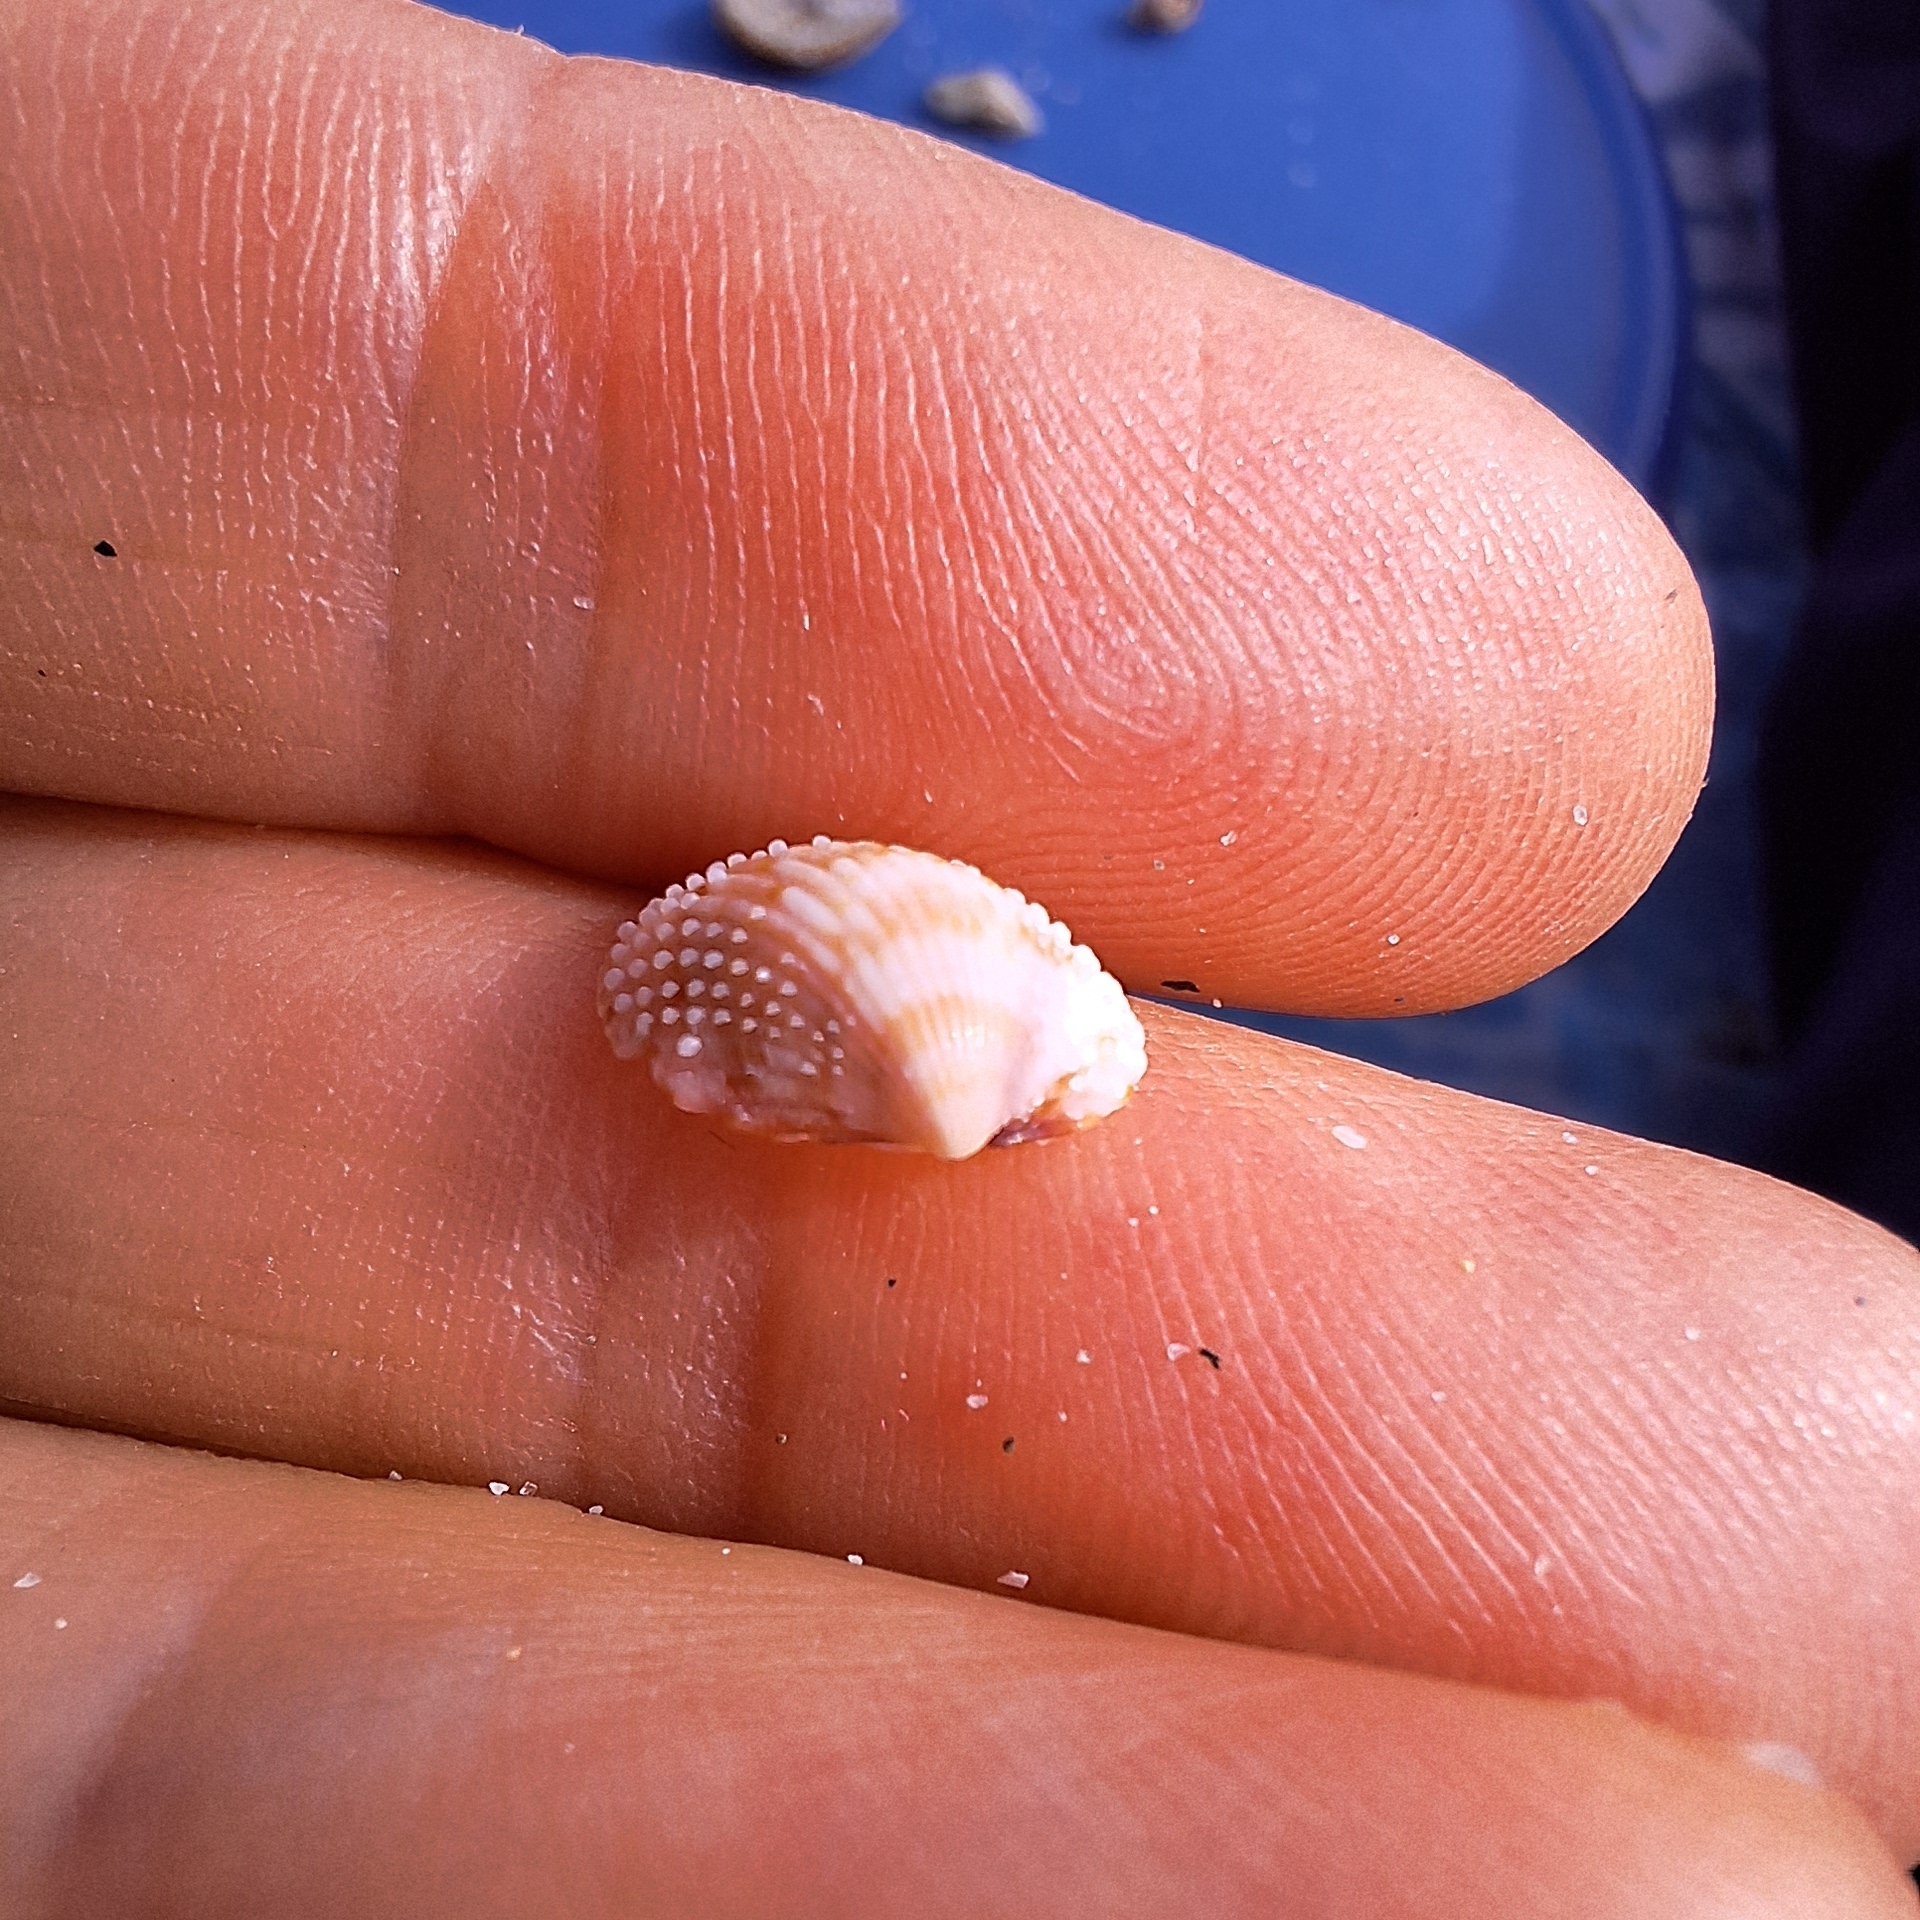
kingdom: Animalia
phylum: Mollusca
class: Bivalvia
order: Cardiida
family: Cardiidae
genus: Papillicardium
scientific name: Papillicardium papillosum
